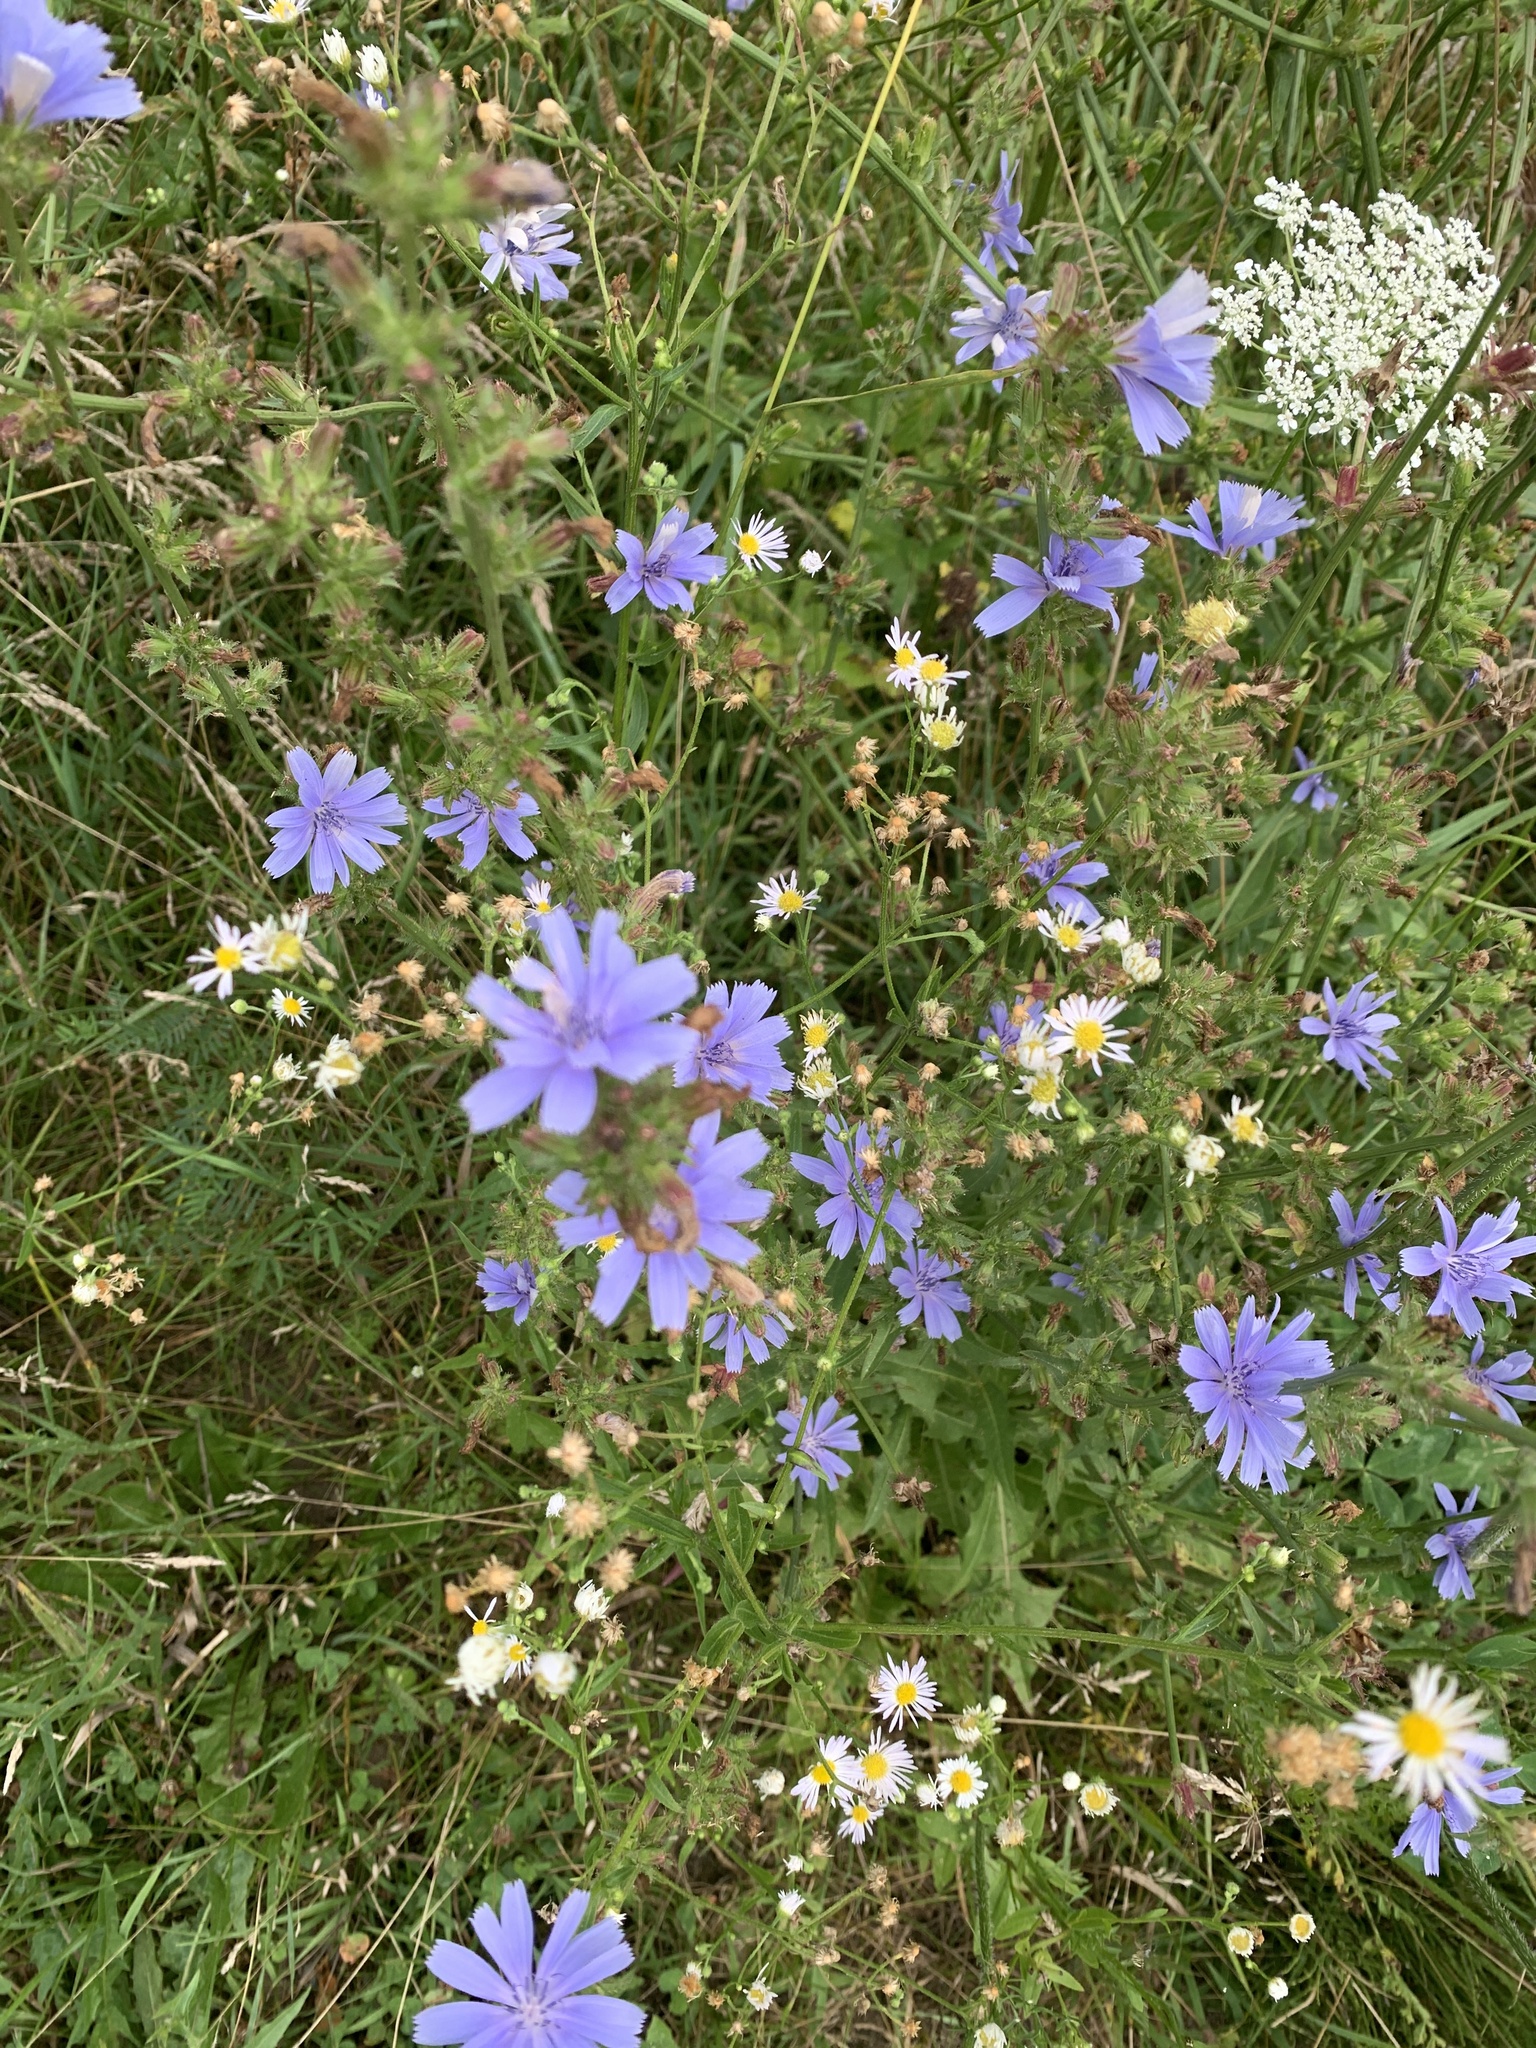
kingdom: Plantae
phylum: Tracheophyta
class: Magnoliopsida
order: Asterales
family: Asteraceae
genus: Cichorium
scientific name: Cichorium intybus
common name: Chicory
